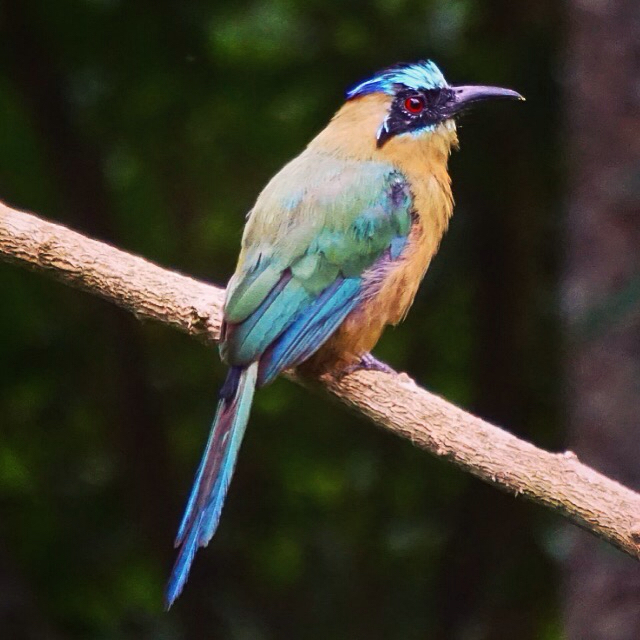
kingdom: Animalia
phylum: Chordata
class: Aves
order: Coraciiformes
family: Momotidae
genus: Momotus
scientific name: Momotus subrufescens
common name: Whooping motmot
